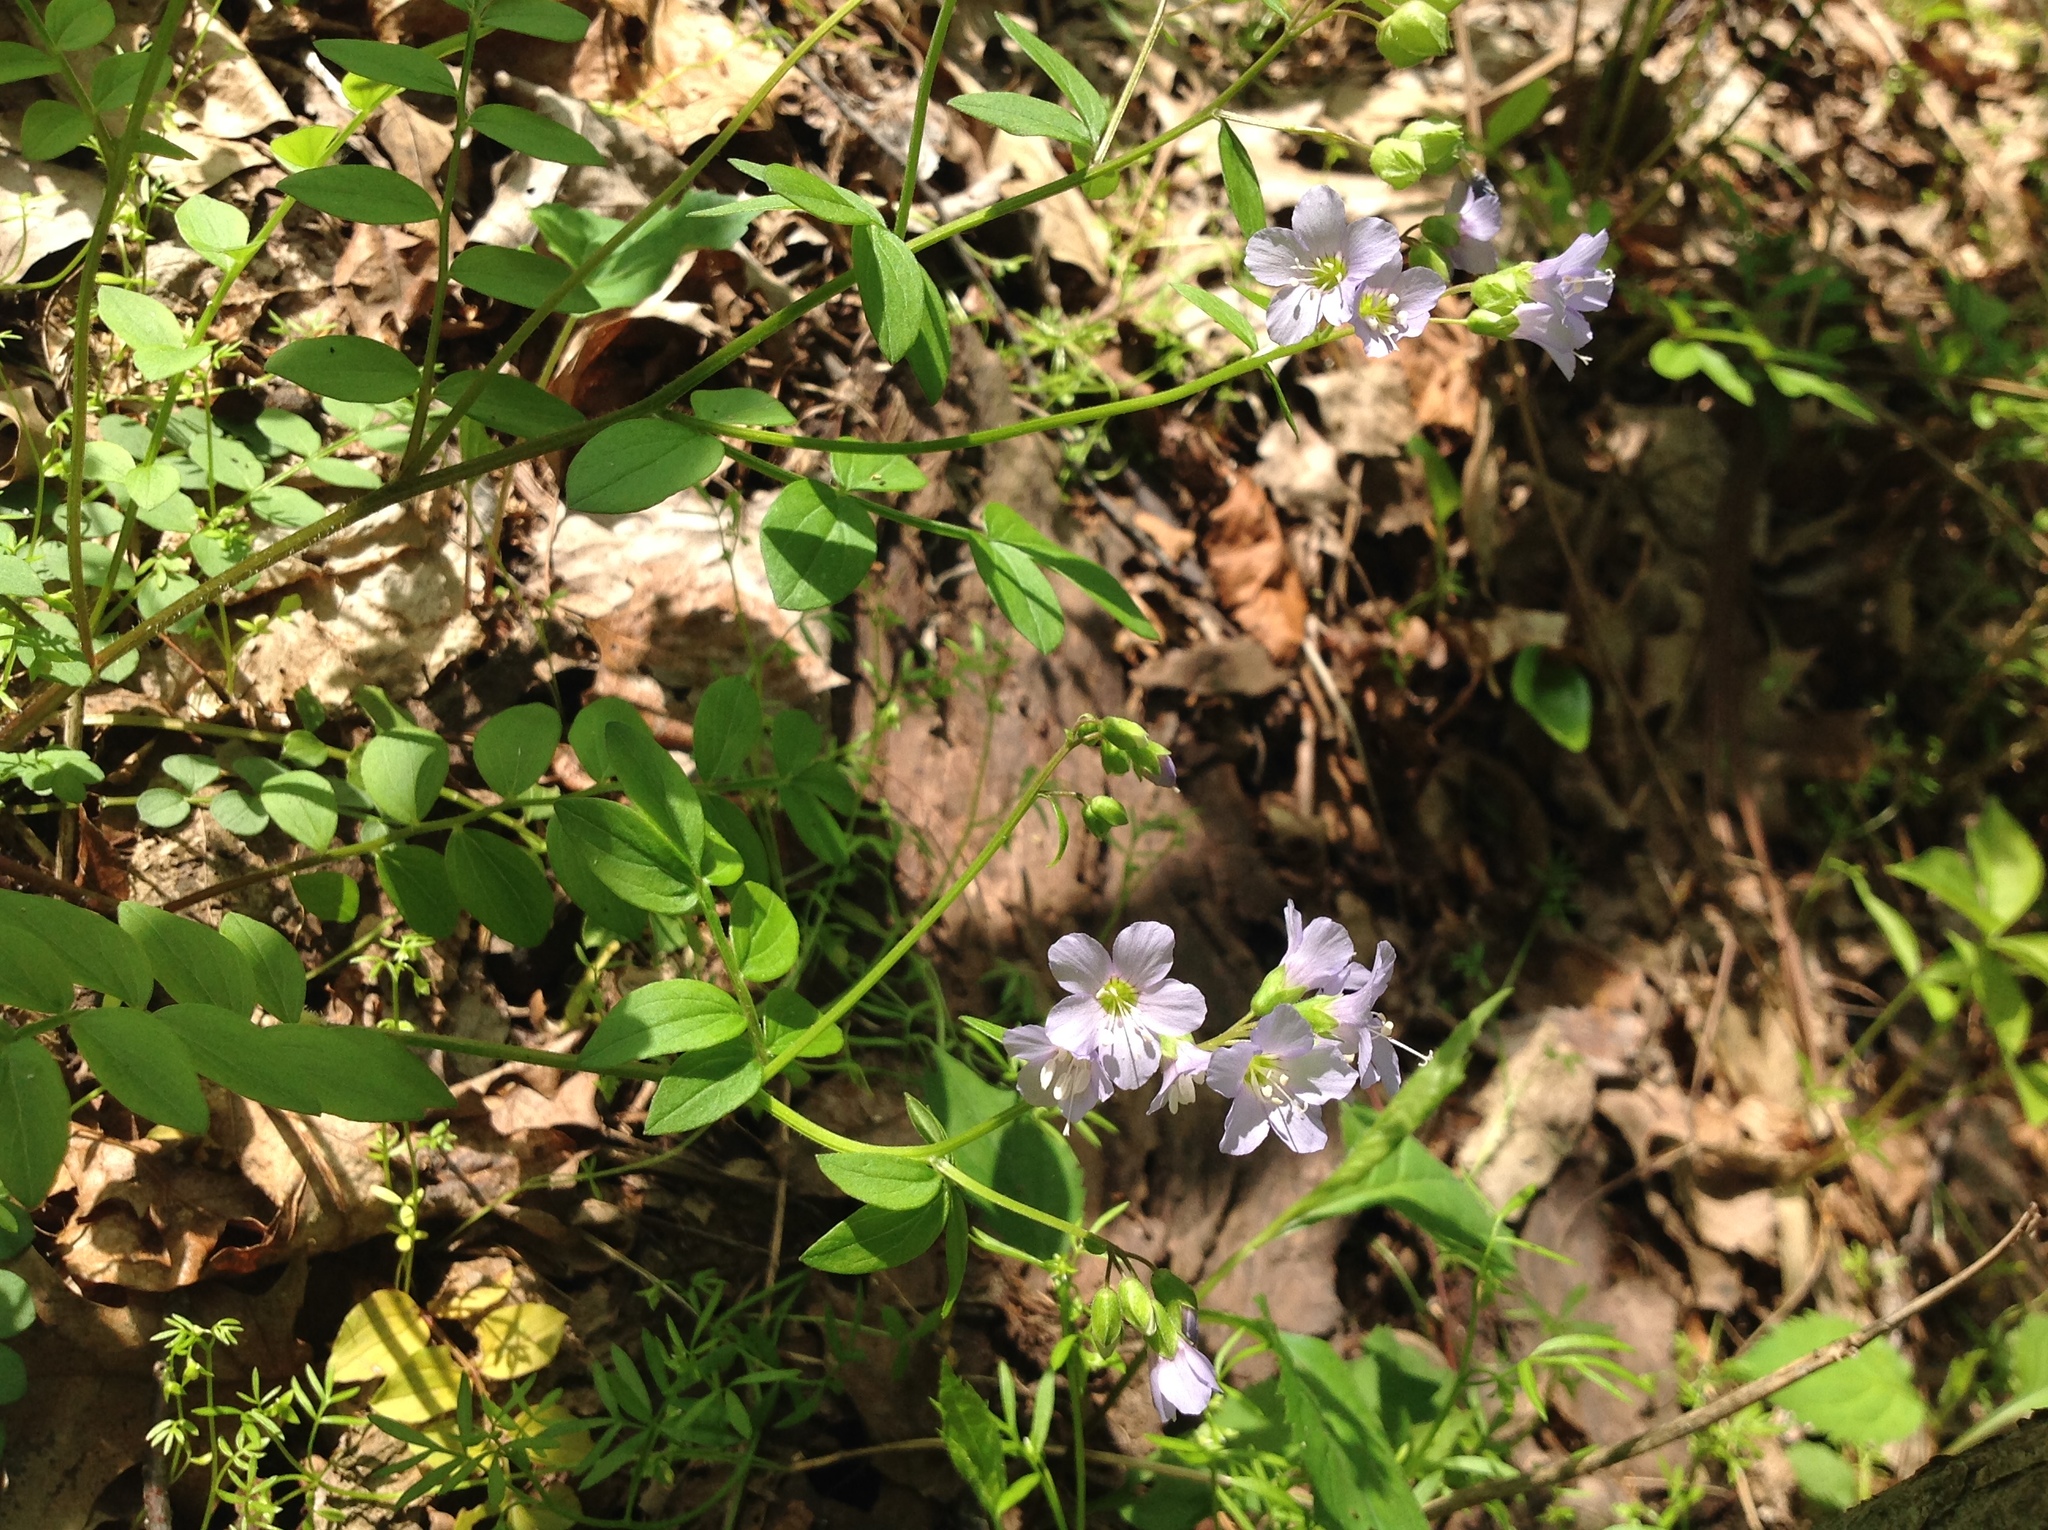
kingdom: Plantae
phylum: Tracheophyta
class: Magnoliopsida
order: Ericales
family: Polemoniaceae
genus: Polemonium
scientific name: Polemonium reptans
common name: Creeping jacob's-ladder
